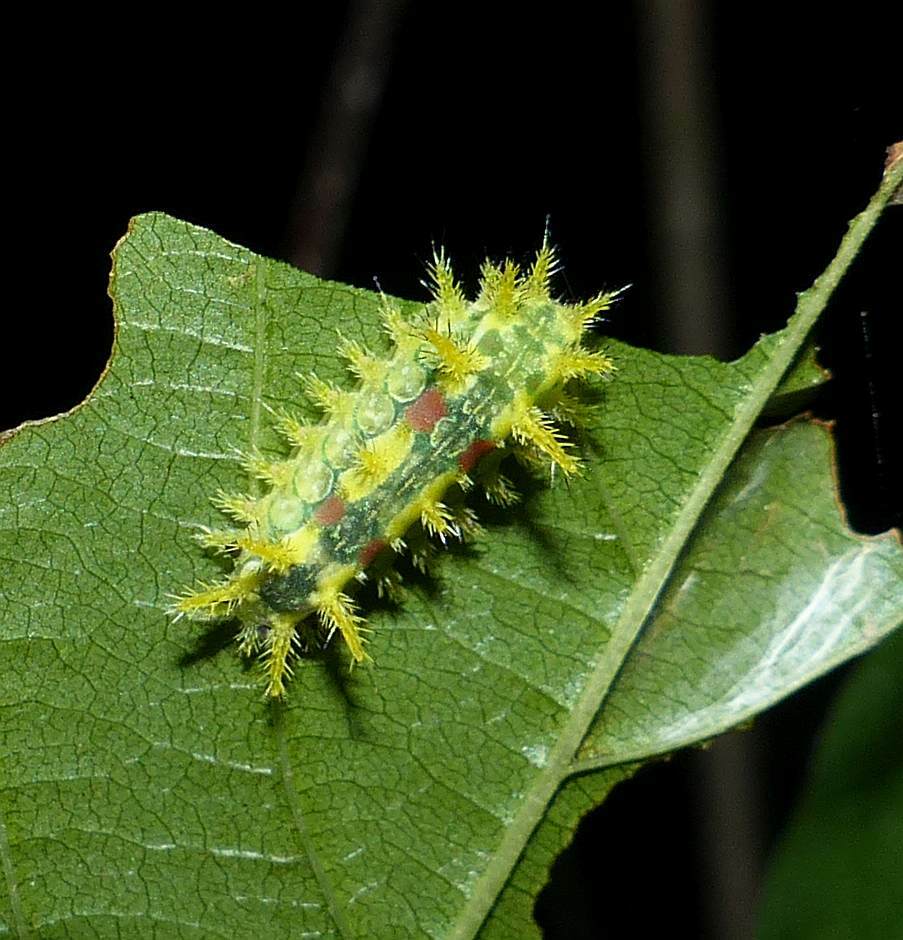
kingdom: Animalia
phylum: Arthropoda
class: Insecta
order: Lepidoptera
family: Limacodidae
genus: Euclea
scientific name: Euclea delphinii
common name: Spiny oak-slug moth
